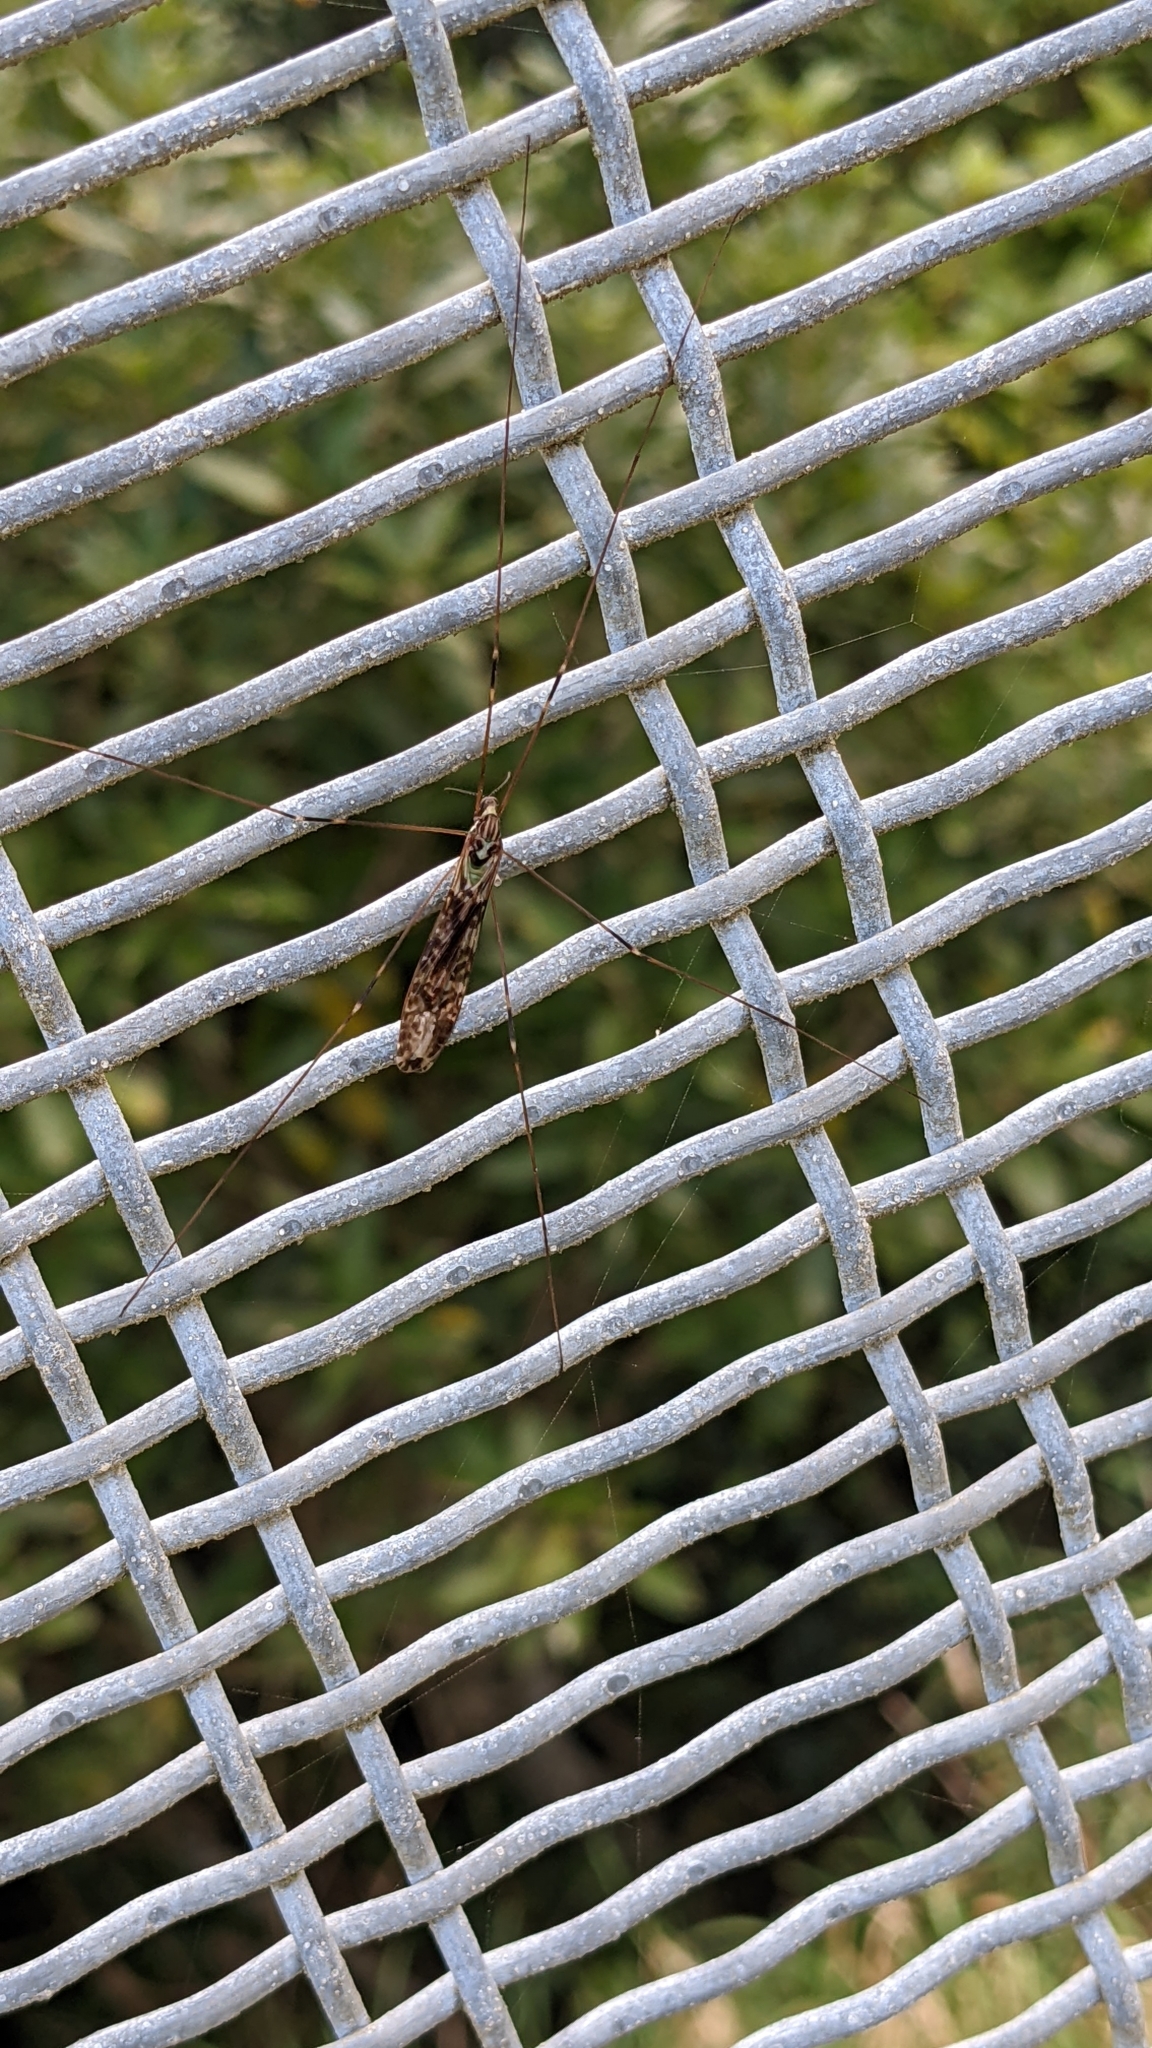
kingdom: Animalia
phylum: Arthropoda
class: Insecta
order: Diptera
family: Limoniidae
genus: Discobola
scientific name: Discobola dohrni
